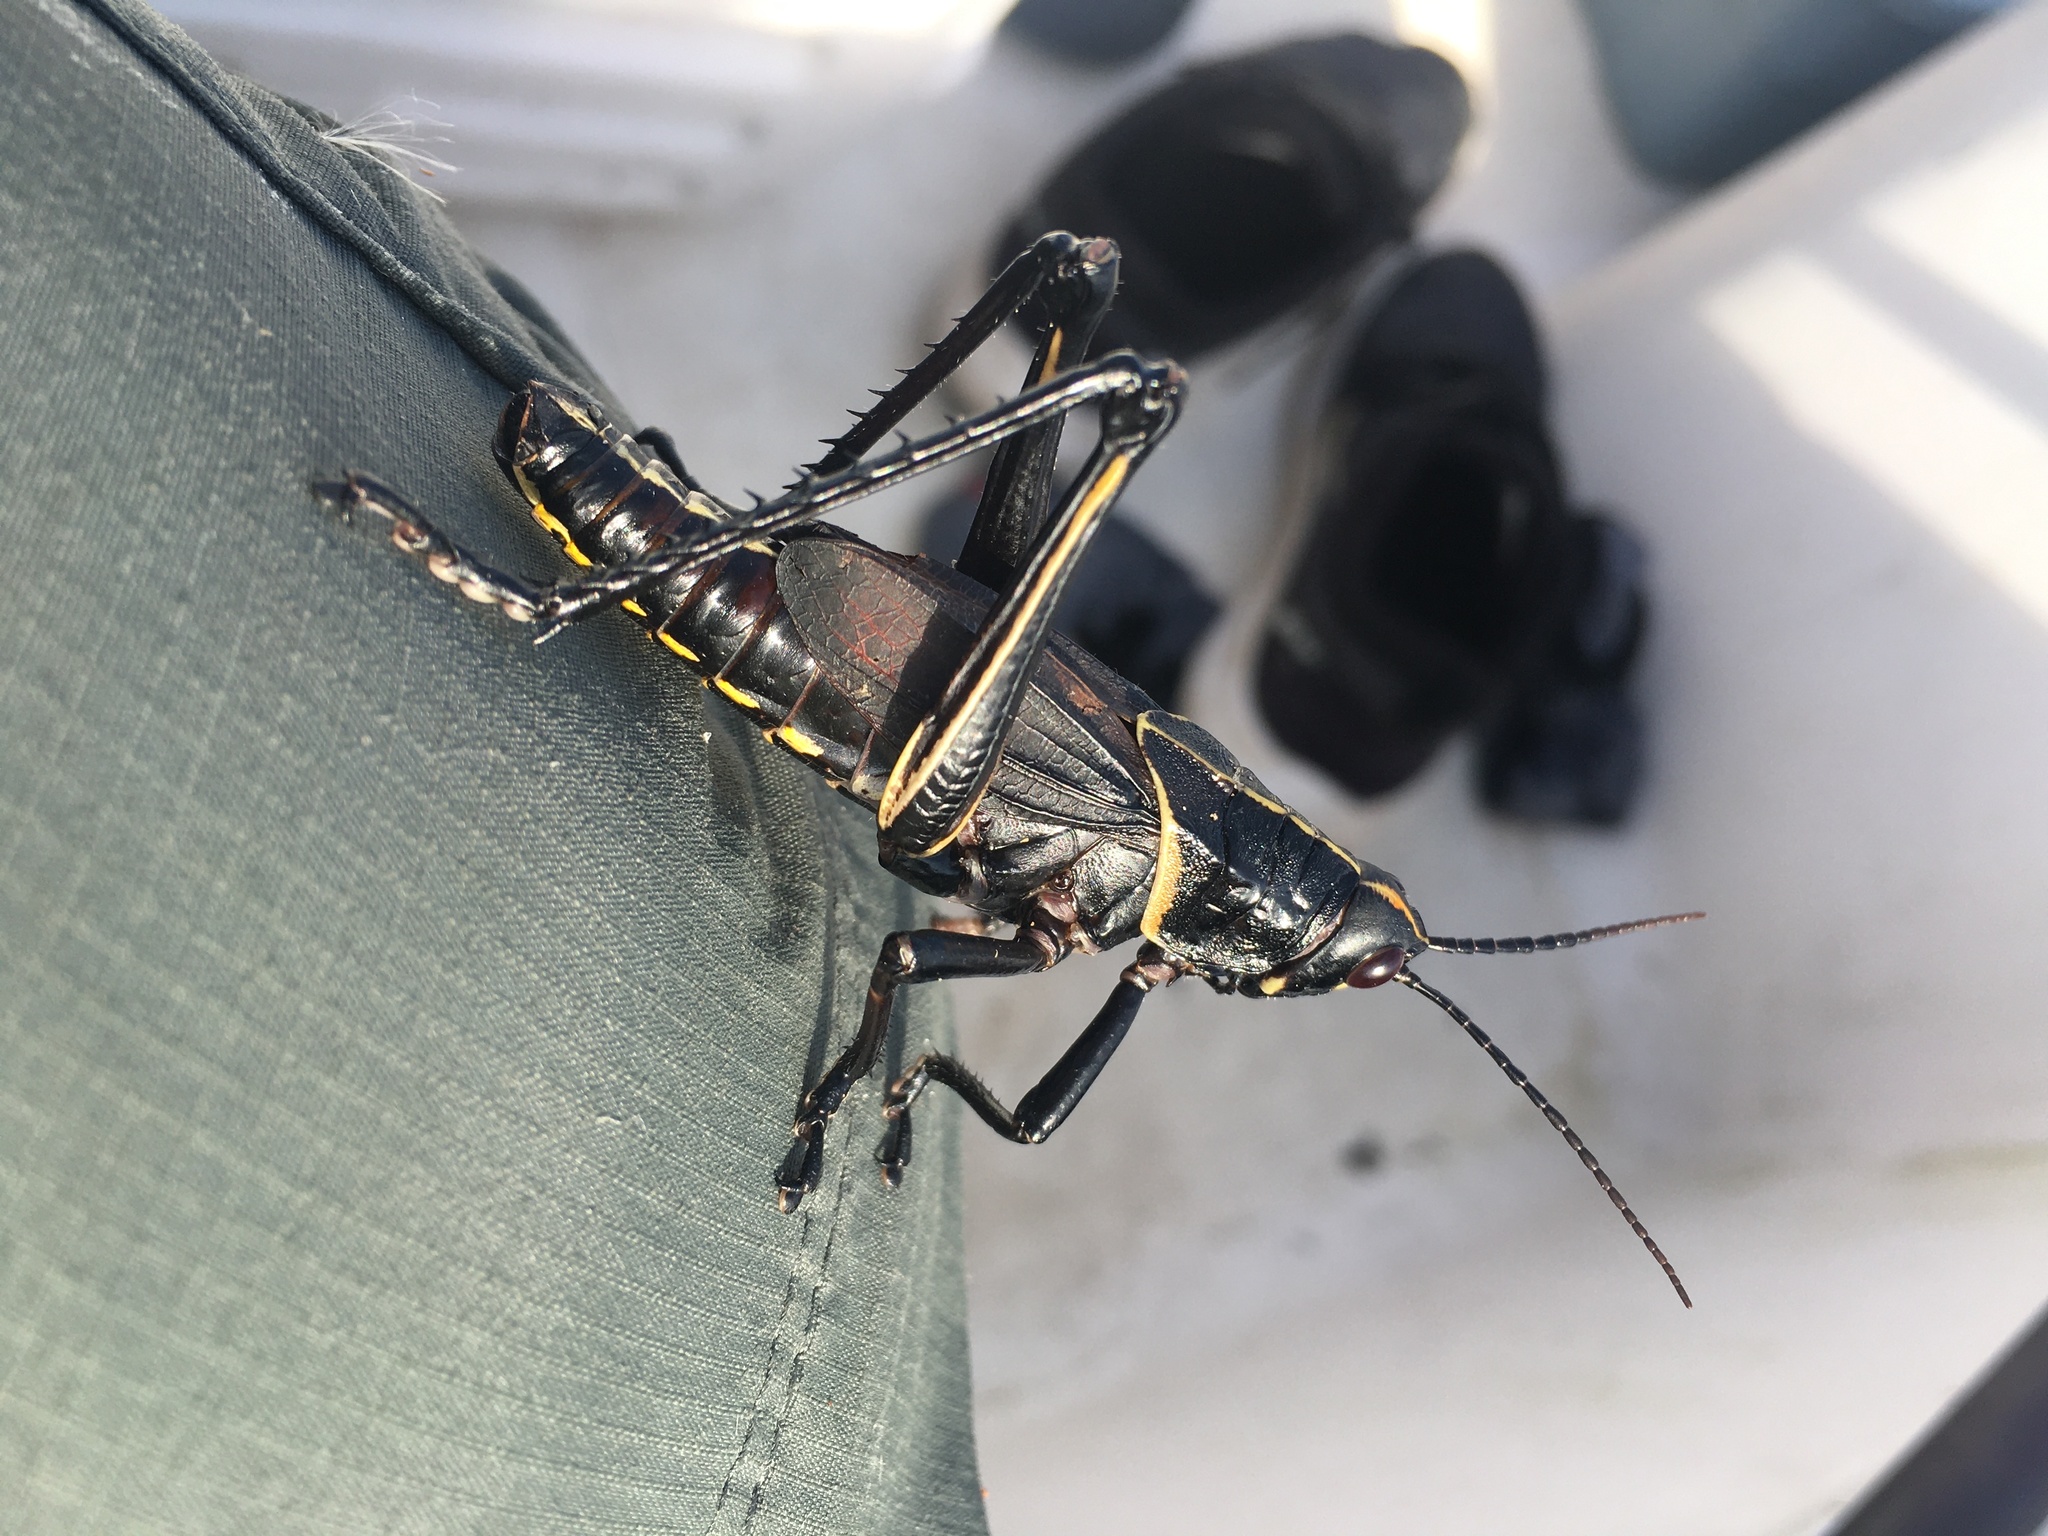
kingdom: Animalia
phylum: Arthropoda
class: Insecta
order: Orthoptera
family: Romaleidae
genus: Romalea
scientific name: Romalea microptera
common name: Eastern lubber grasshopper
